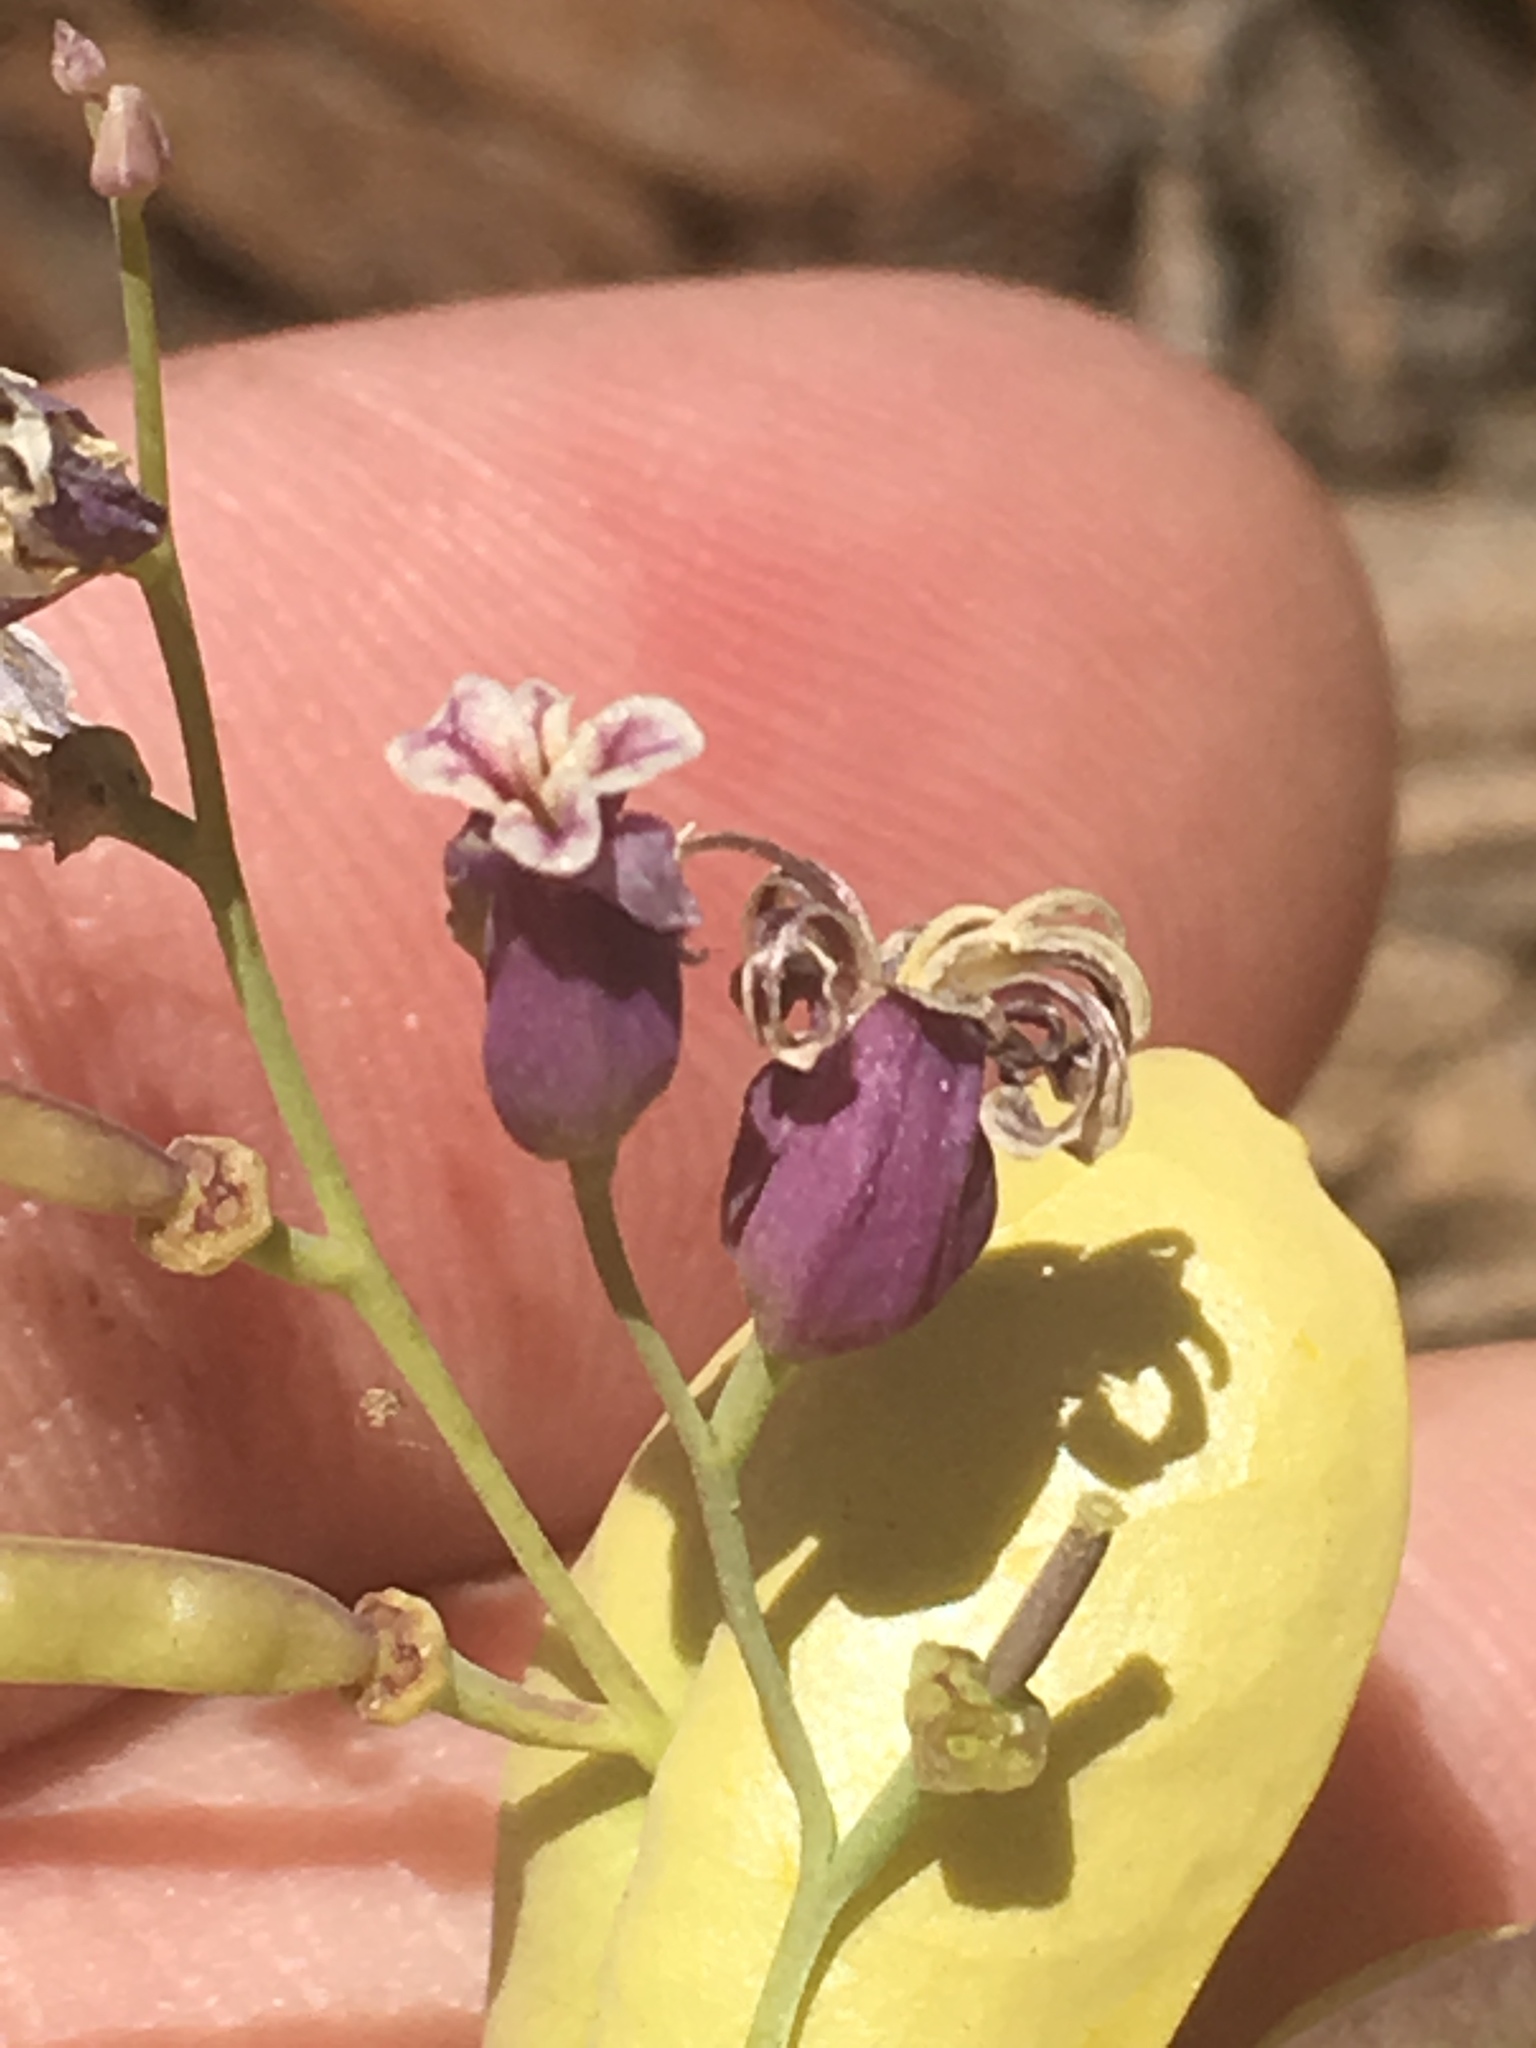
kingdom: Plantae
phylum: Tracheophyta
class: Magnoliopsida
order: Brassicales
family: Brassicaceae
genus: Streptanthus
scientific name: Streptanthus tortuosus
